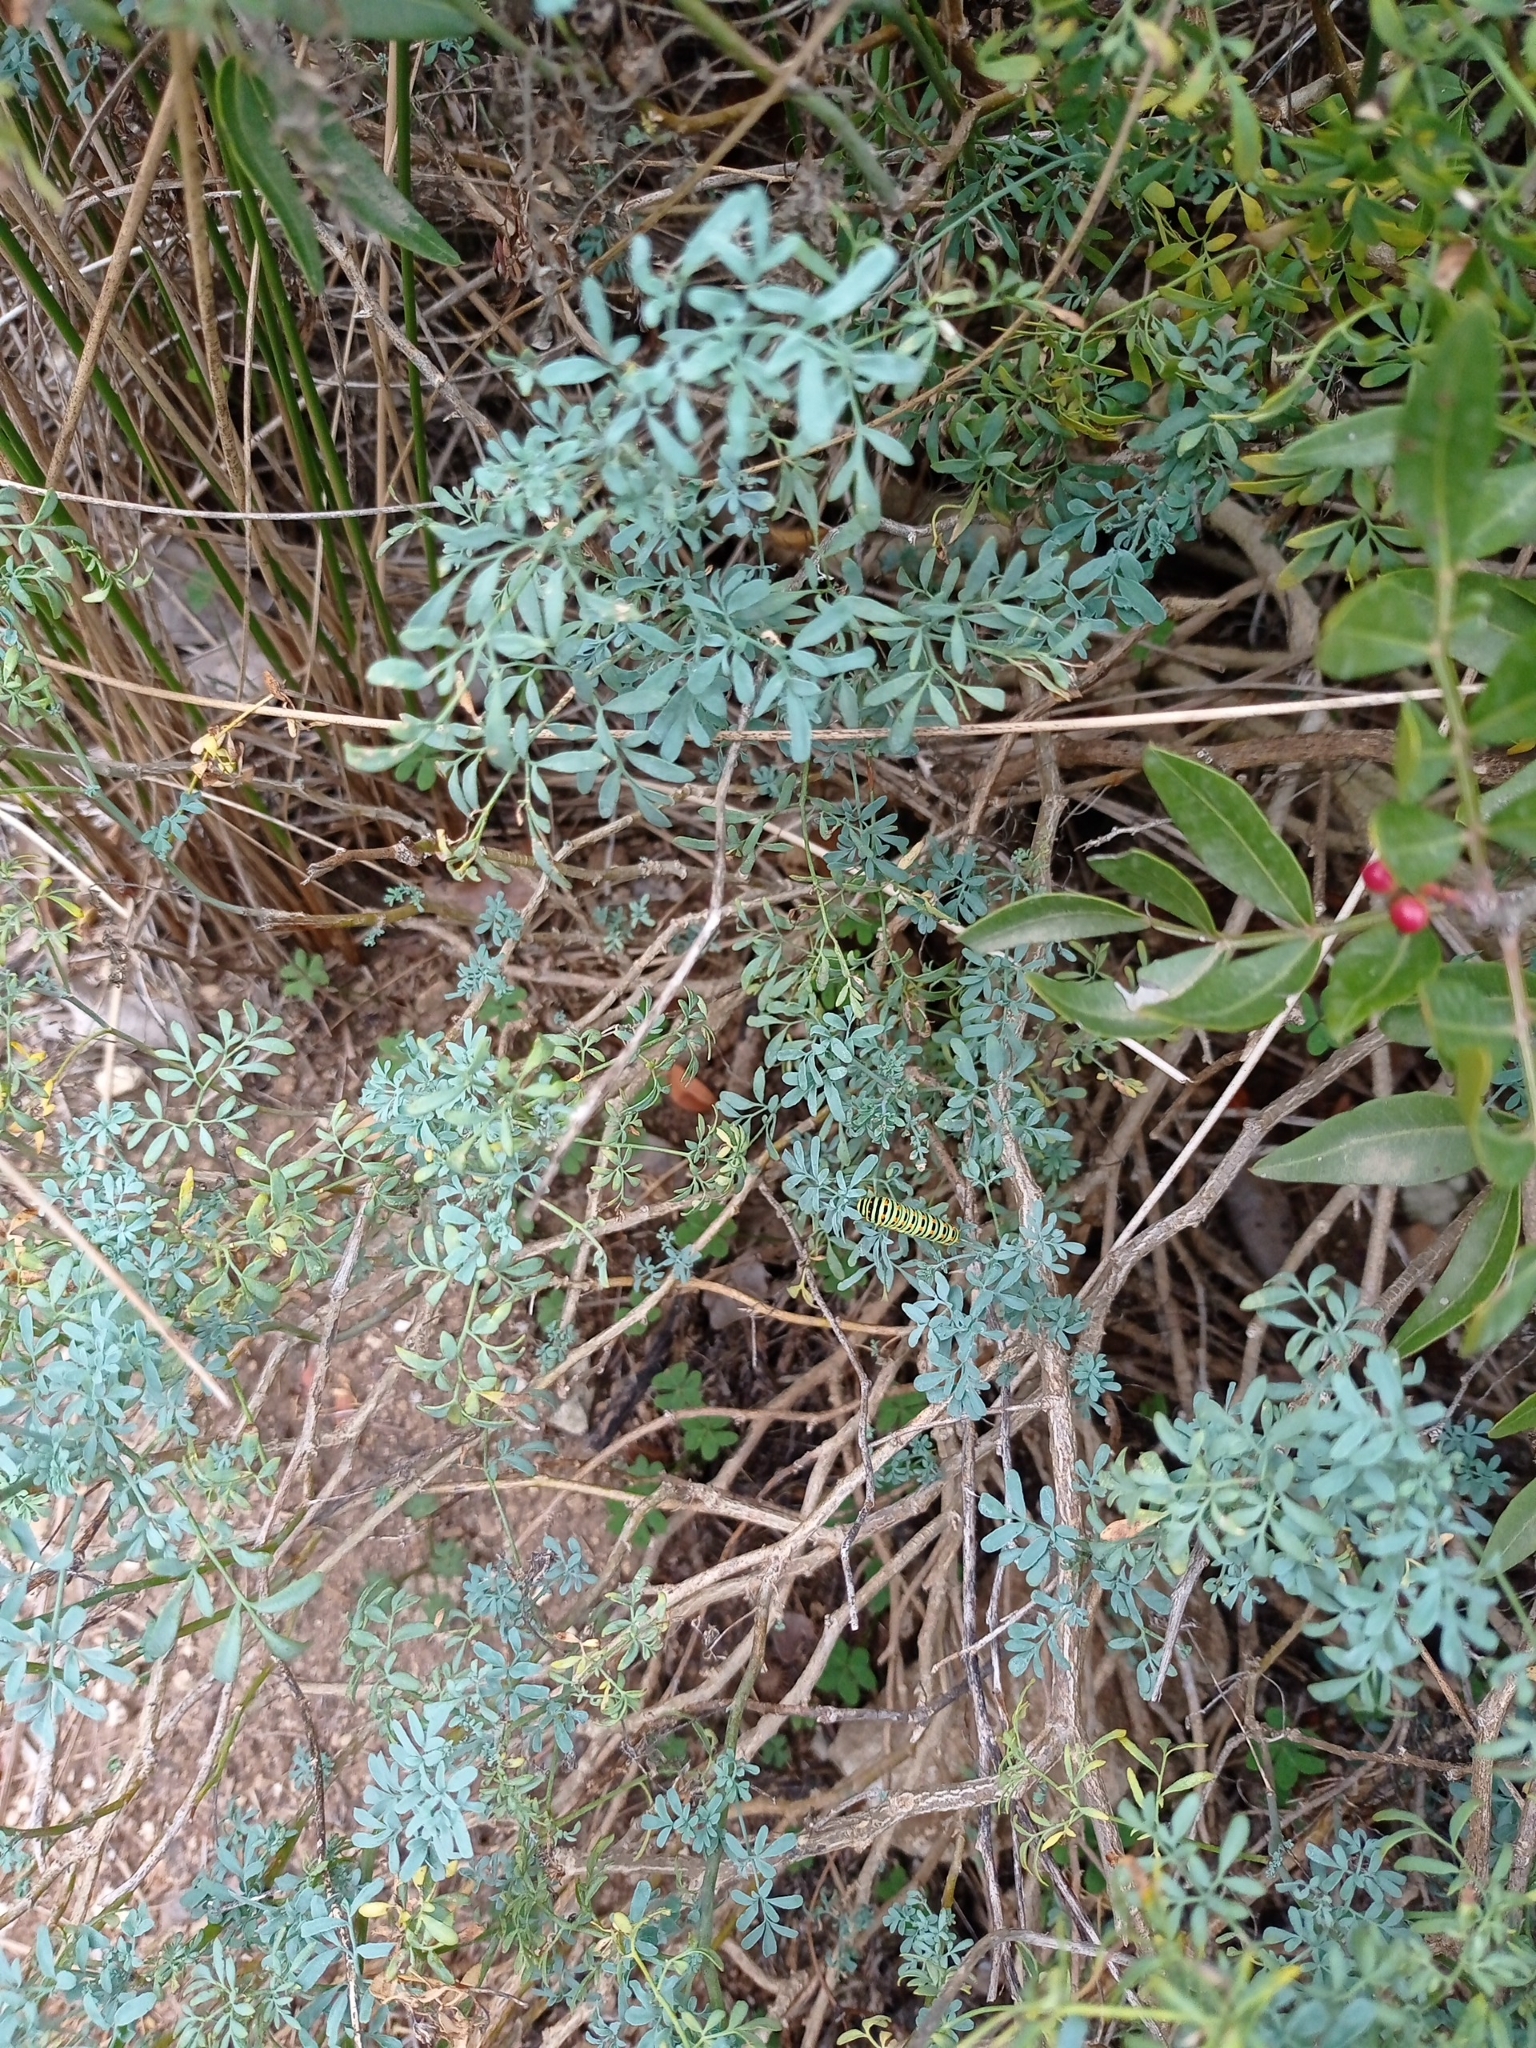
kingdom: Animalia
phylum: Arthropoda
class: Insecta
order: Lepidoptera
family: Papilionidae
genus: Papilio
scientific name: Papilio machaon
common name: Swallowtail
